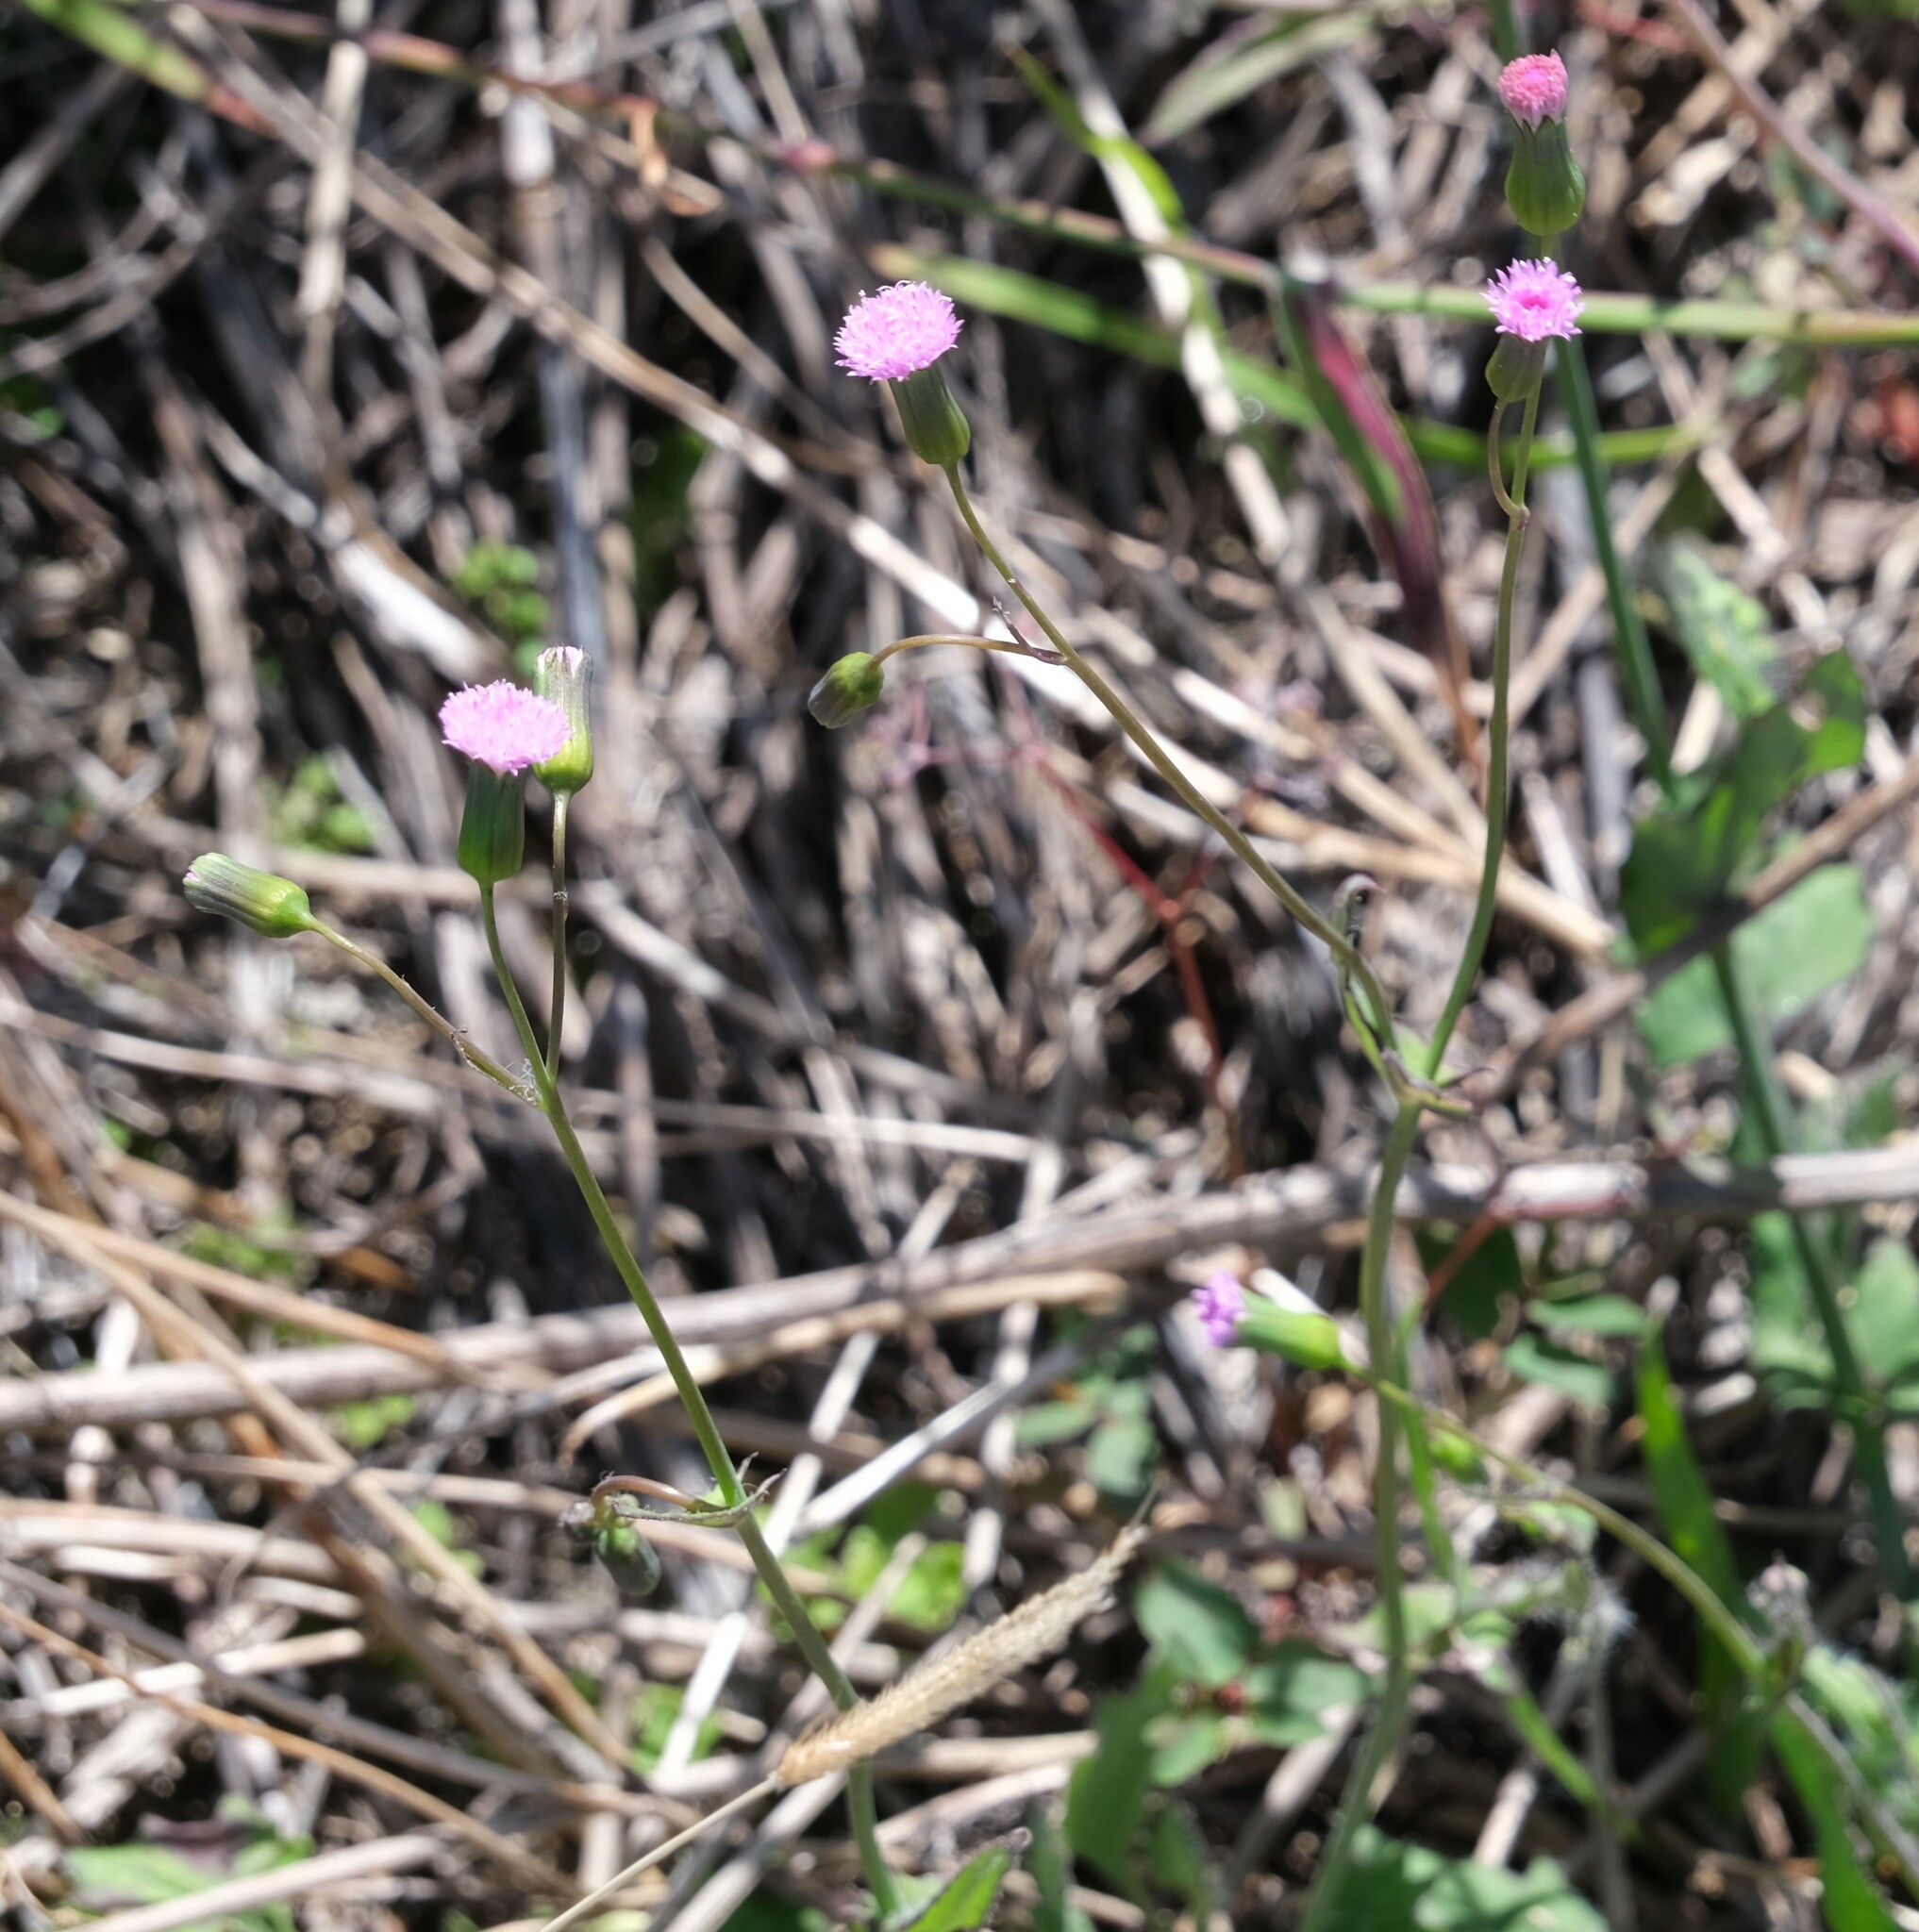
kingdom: Plantae
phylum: Tracheophyta
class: Magnoliopsida
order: Asterales
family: Asteraceae
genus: Emilia
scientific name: Emilia javanica
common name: Tassel-flower
